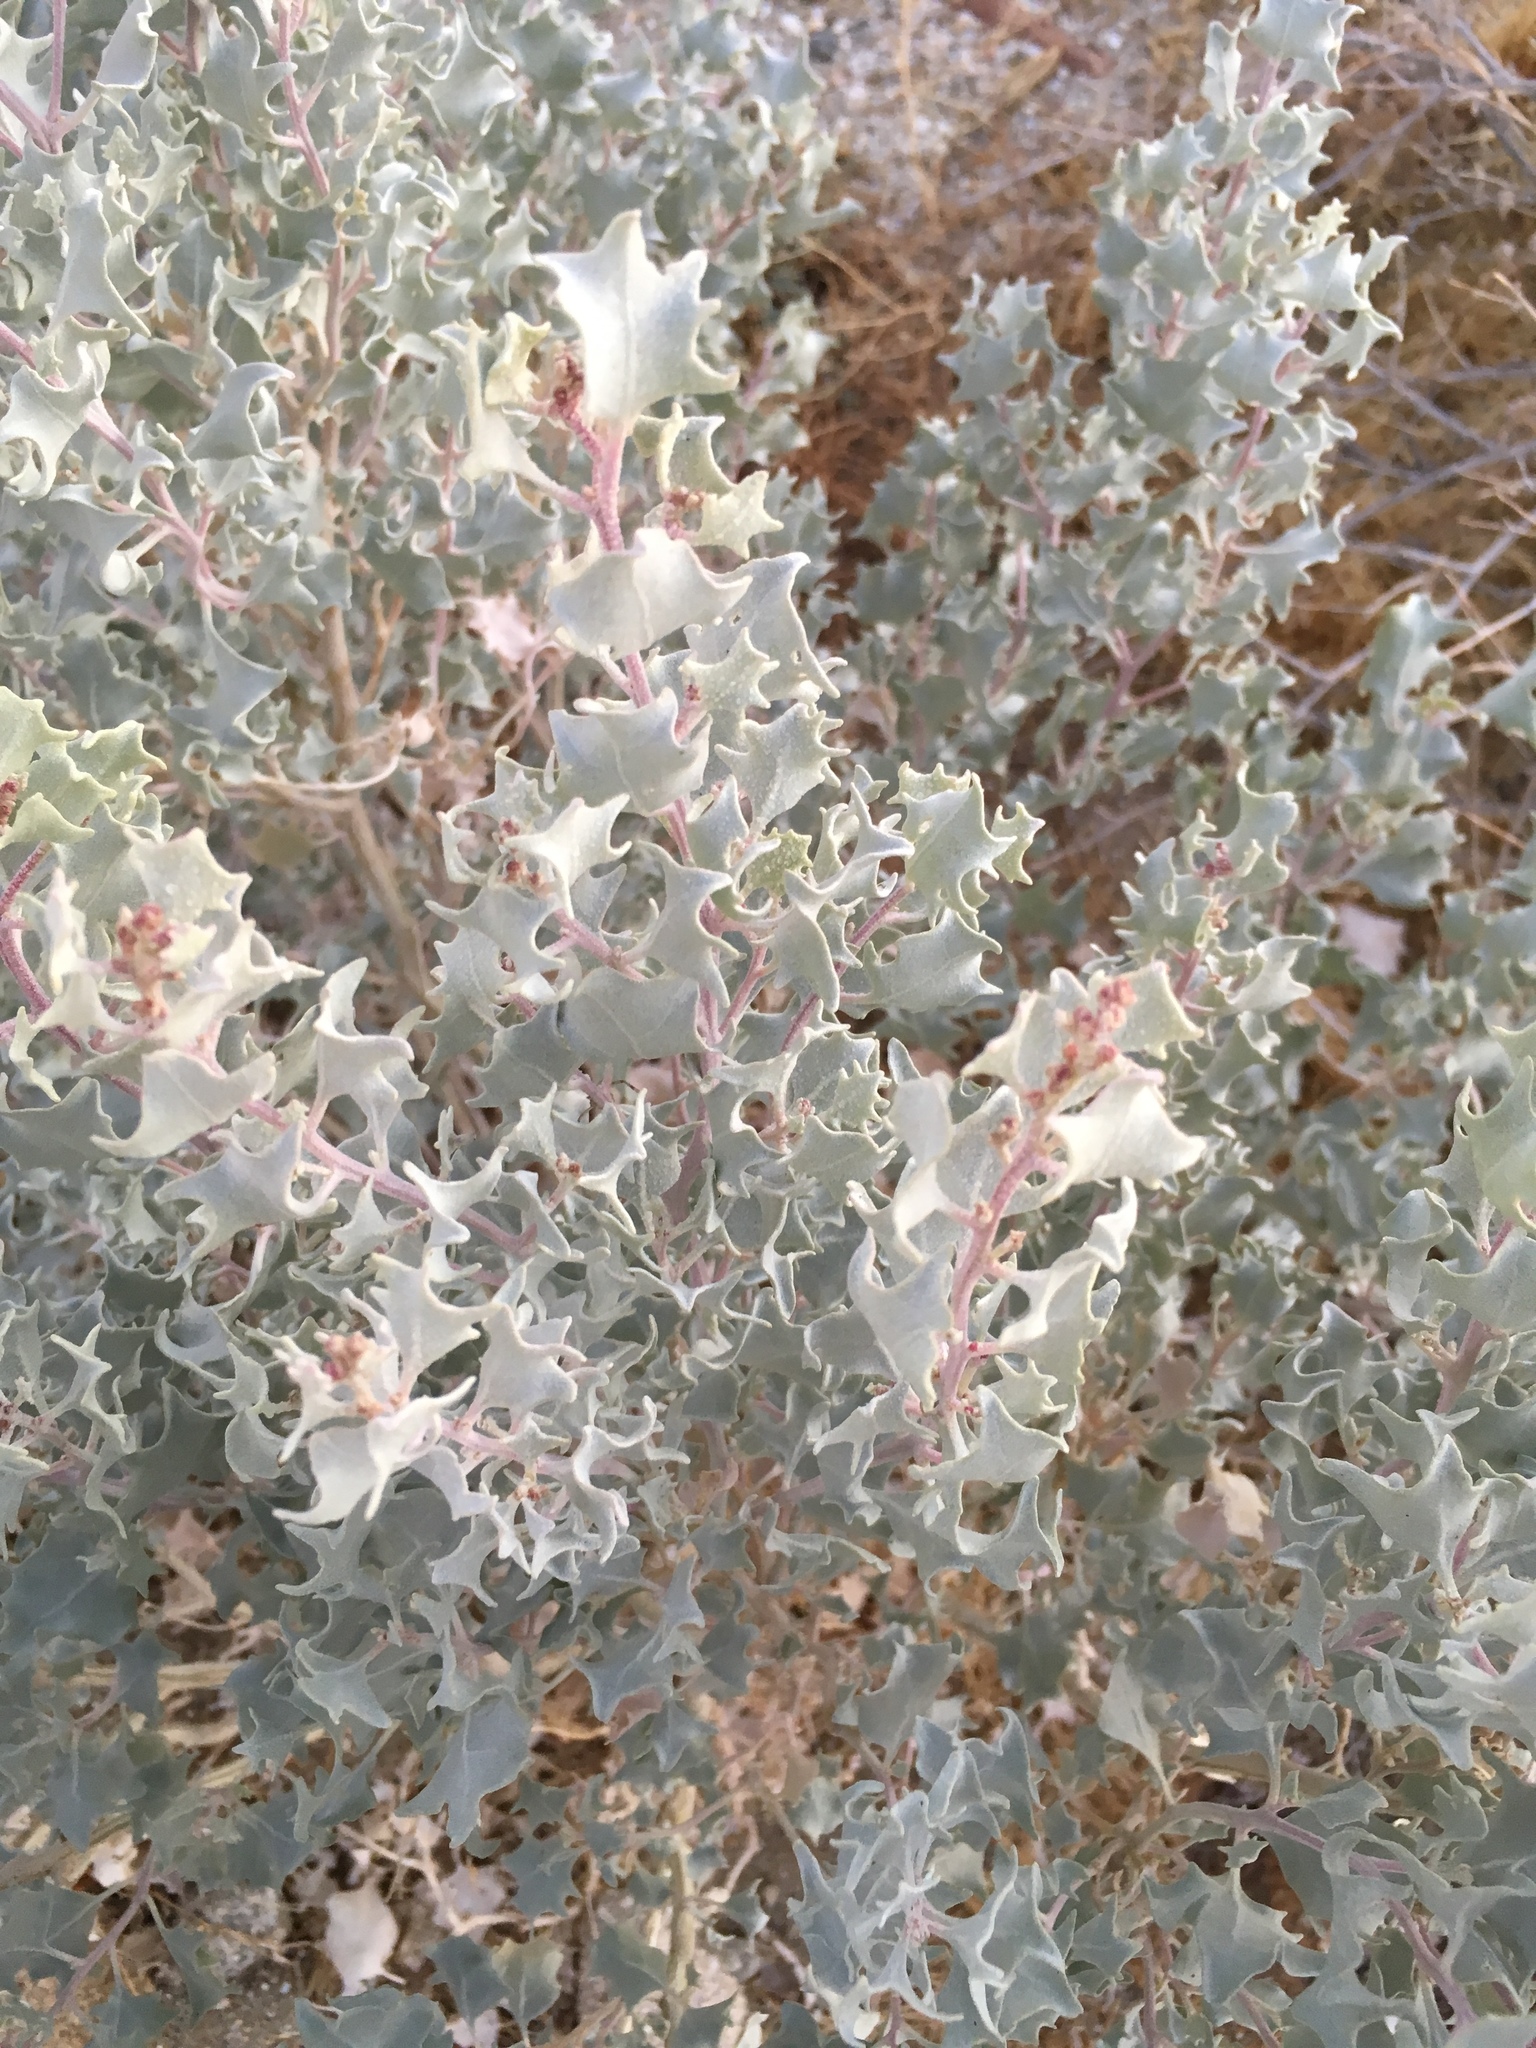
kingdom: Plantae
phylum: Tracheophyta
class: Magnoliopsida
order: Caryophyllales
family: Amaranthaceae
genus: Atriplex
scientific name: Atriplex hymenelytra
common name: Desert-holly
